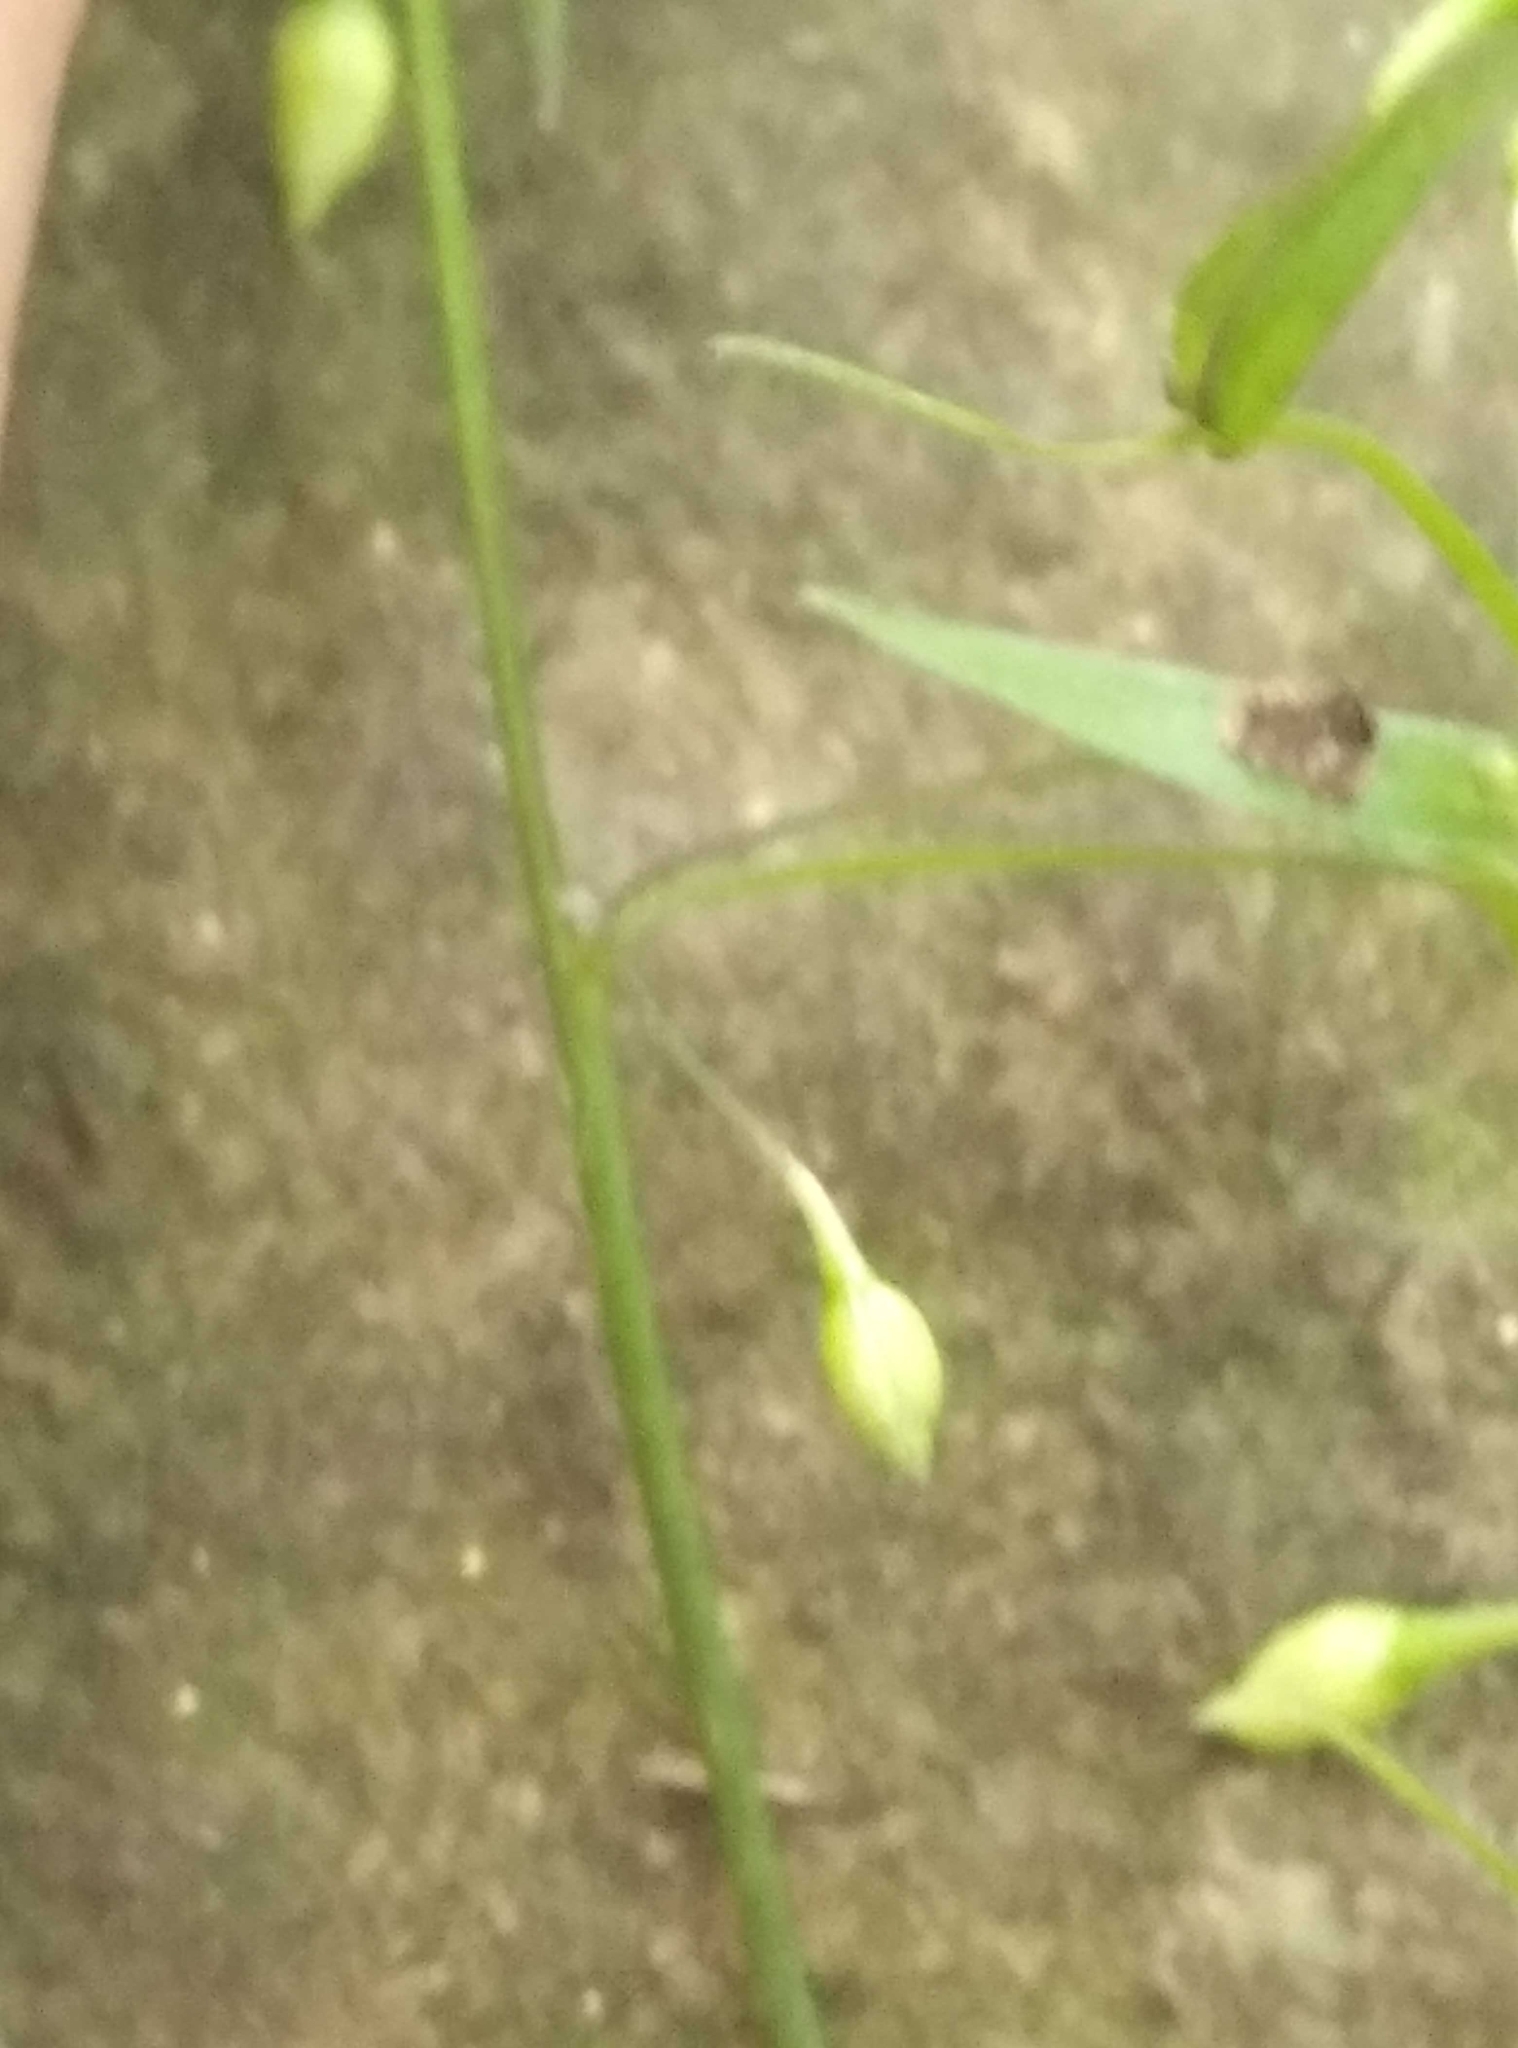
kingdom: Plantae
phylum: Tracheophyta
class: Liliopsida
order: Asparagales
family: Asparagaceae
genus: Arthropodium
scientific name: Arthropodium candidum
